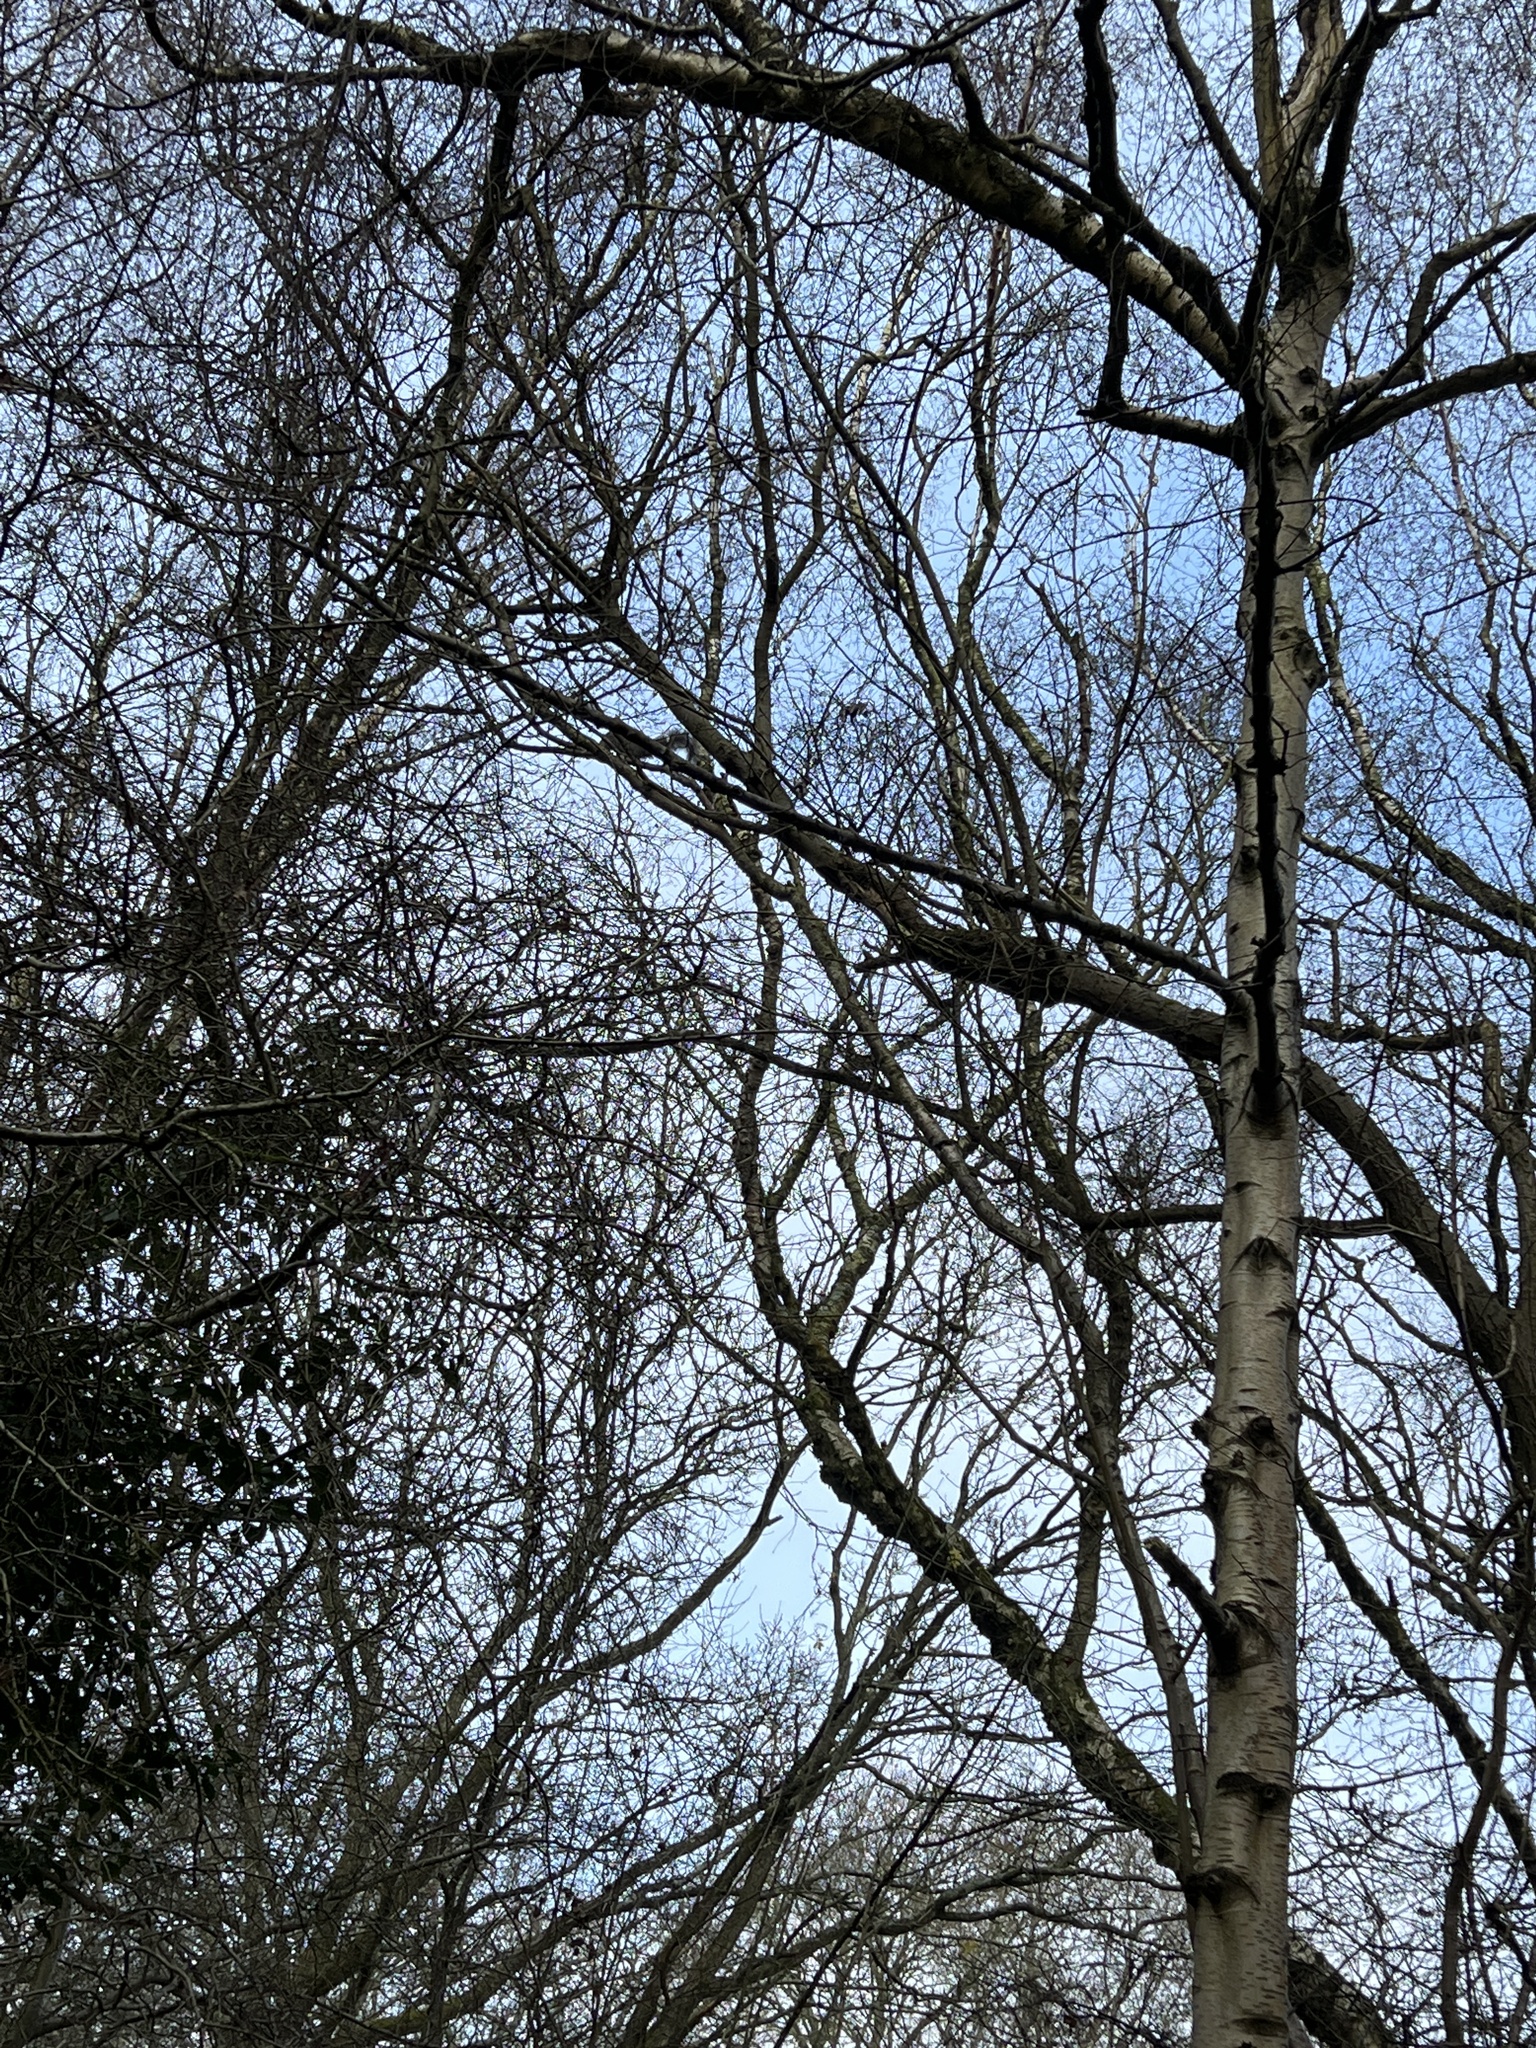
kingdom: Animalia
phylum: Chordata
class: Mammalia
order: Rodentia
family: Sciuridae
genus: Sciurus
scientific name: Sciurus carolinensis
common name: Eastern gray squirrel
